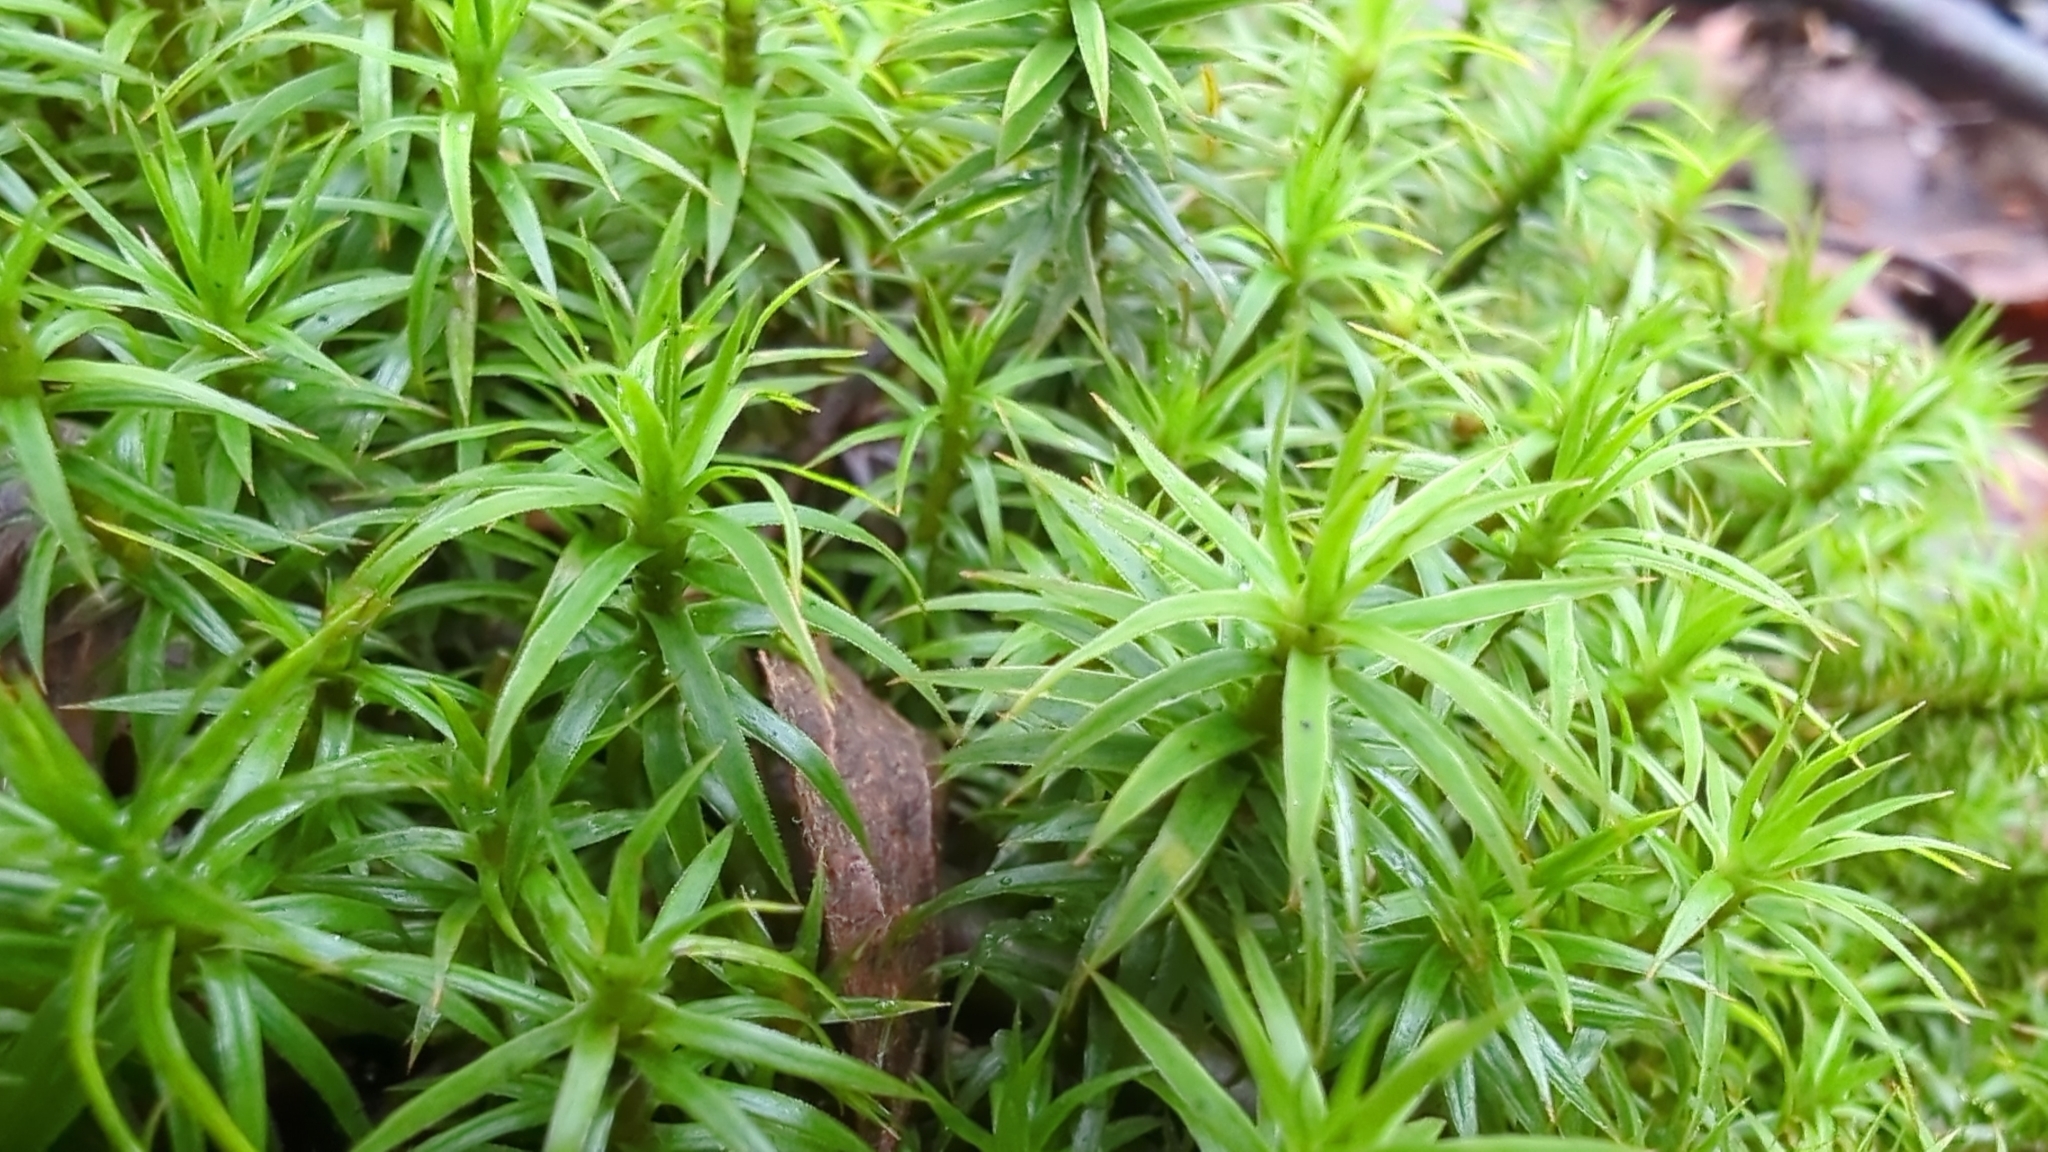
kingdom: Plantae
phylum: Bryophyta
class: Polytrichopsida
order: Polytrichales
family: Polytrichaceae
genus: Polytrichum
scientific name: Polytrichum formosum
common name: Bank haircap moss
